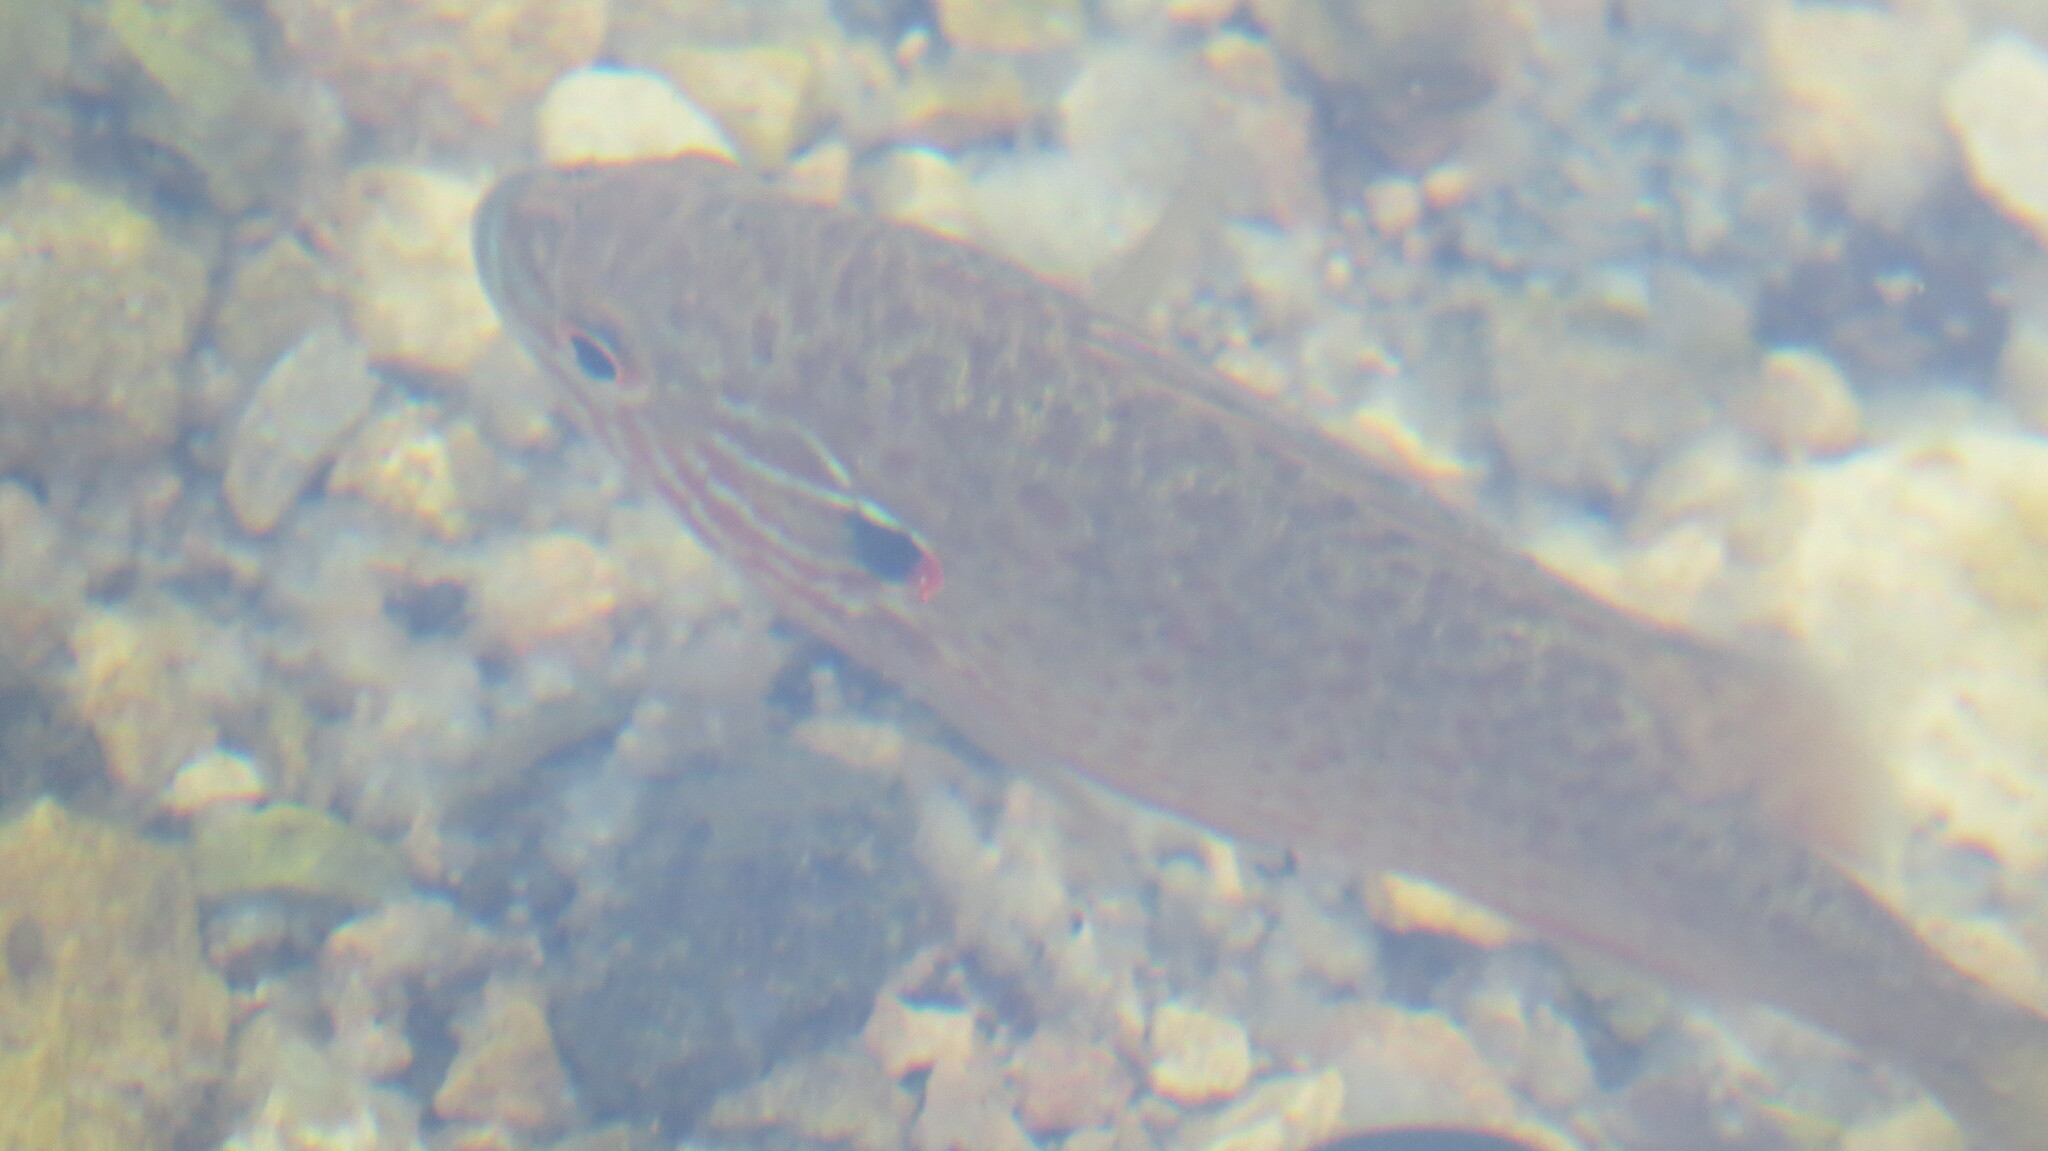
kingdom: Animalia
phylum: Chordata
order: Perciformes
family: Centrarchidae
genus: Lepomis
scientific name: Lepomis gibbosus
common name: Pumpkinseed
